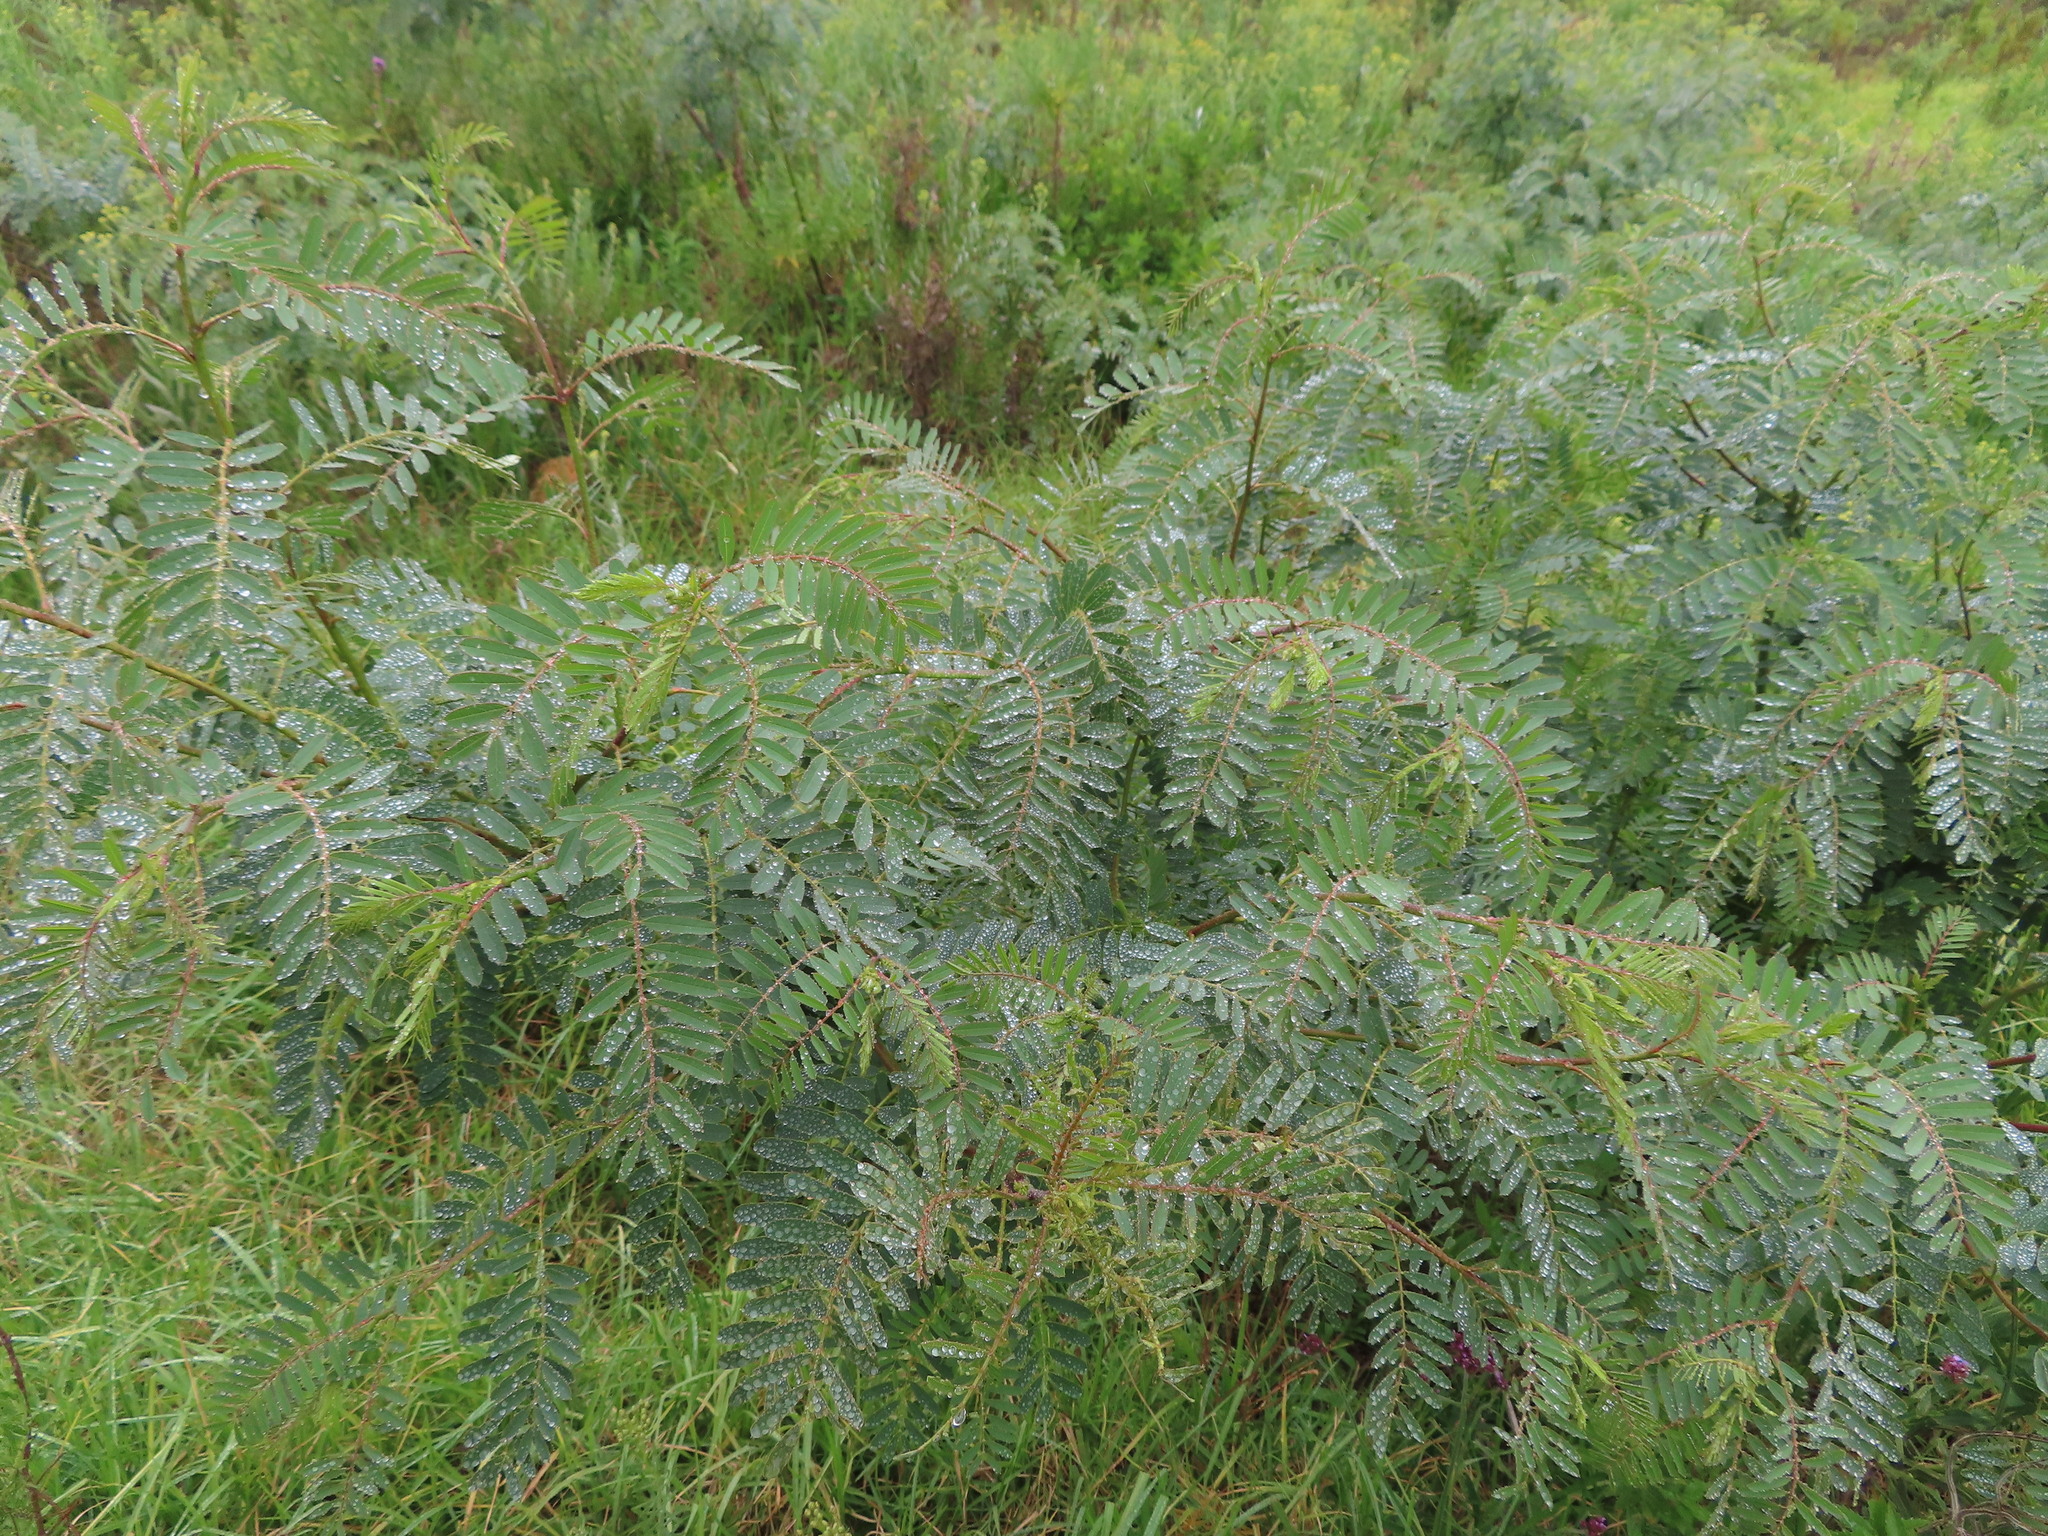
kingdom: Plantae
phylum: Tracheophyta
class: Magnoliopsida
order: Fabales
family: Fabaceae
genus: Sesbania
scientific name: Sesbania punicea
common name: Rattlebox
